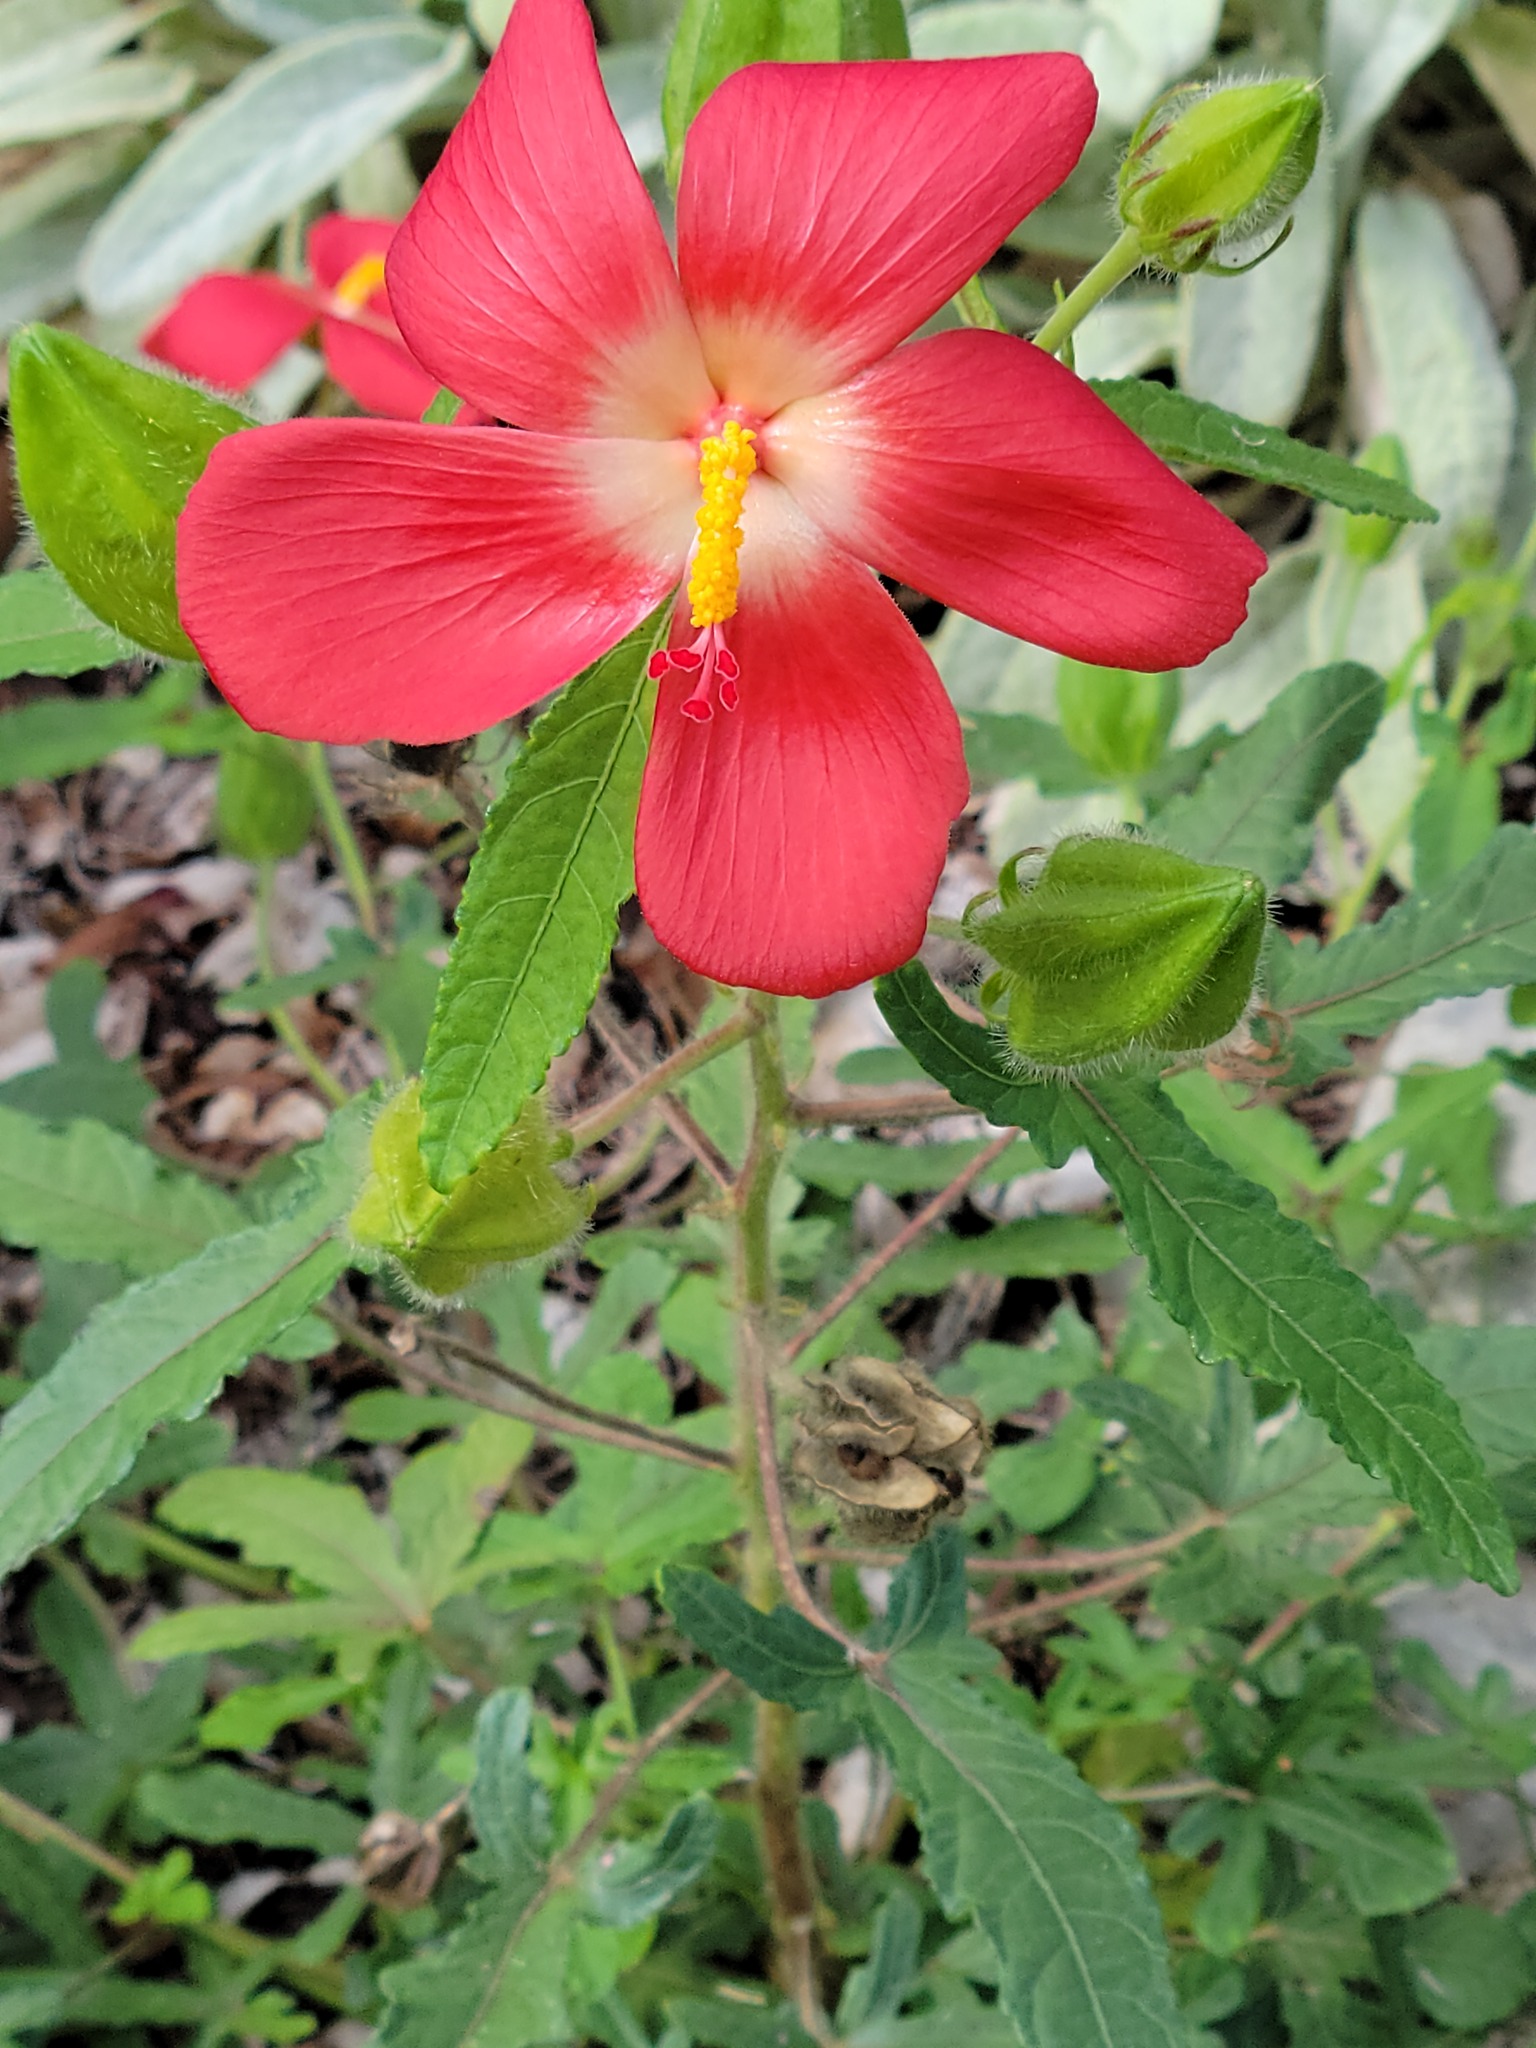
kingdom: Plantae
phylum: Tracheophyta
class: Magnoliopsida
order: Malvales
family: Malvaceae
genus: Abelmoschus
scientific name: Abelmoschus sagittifolius
